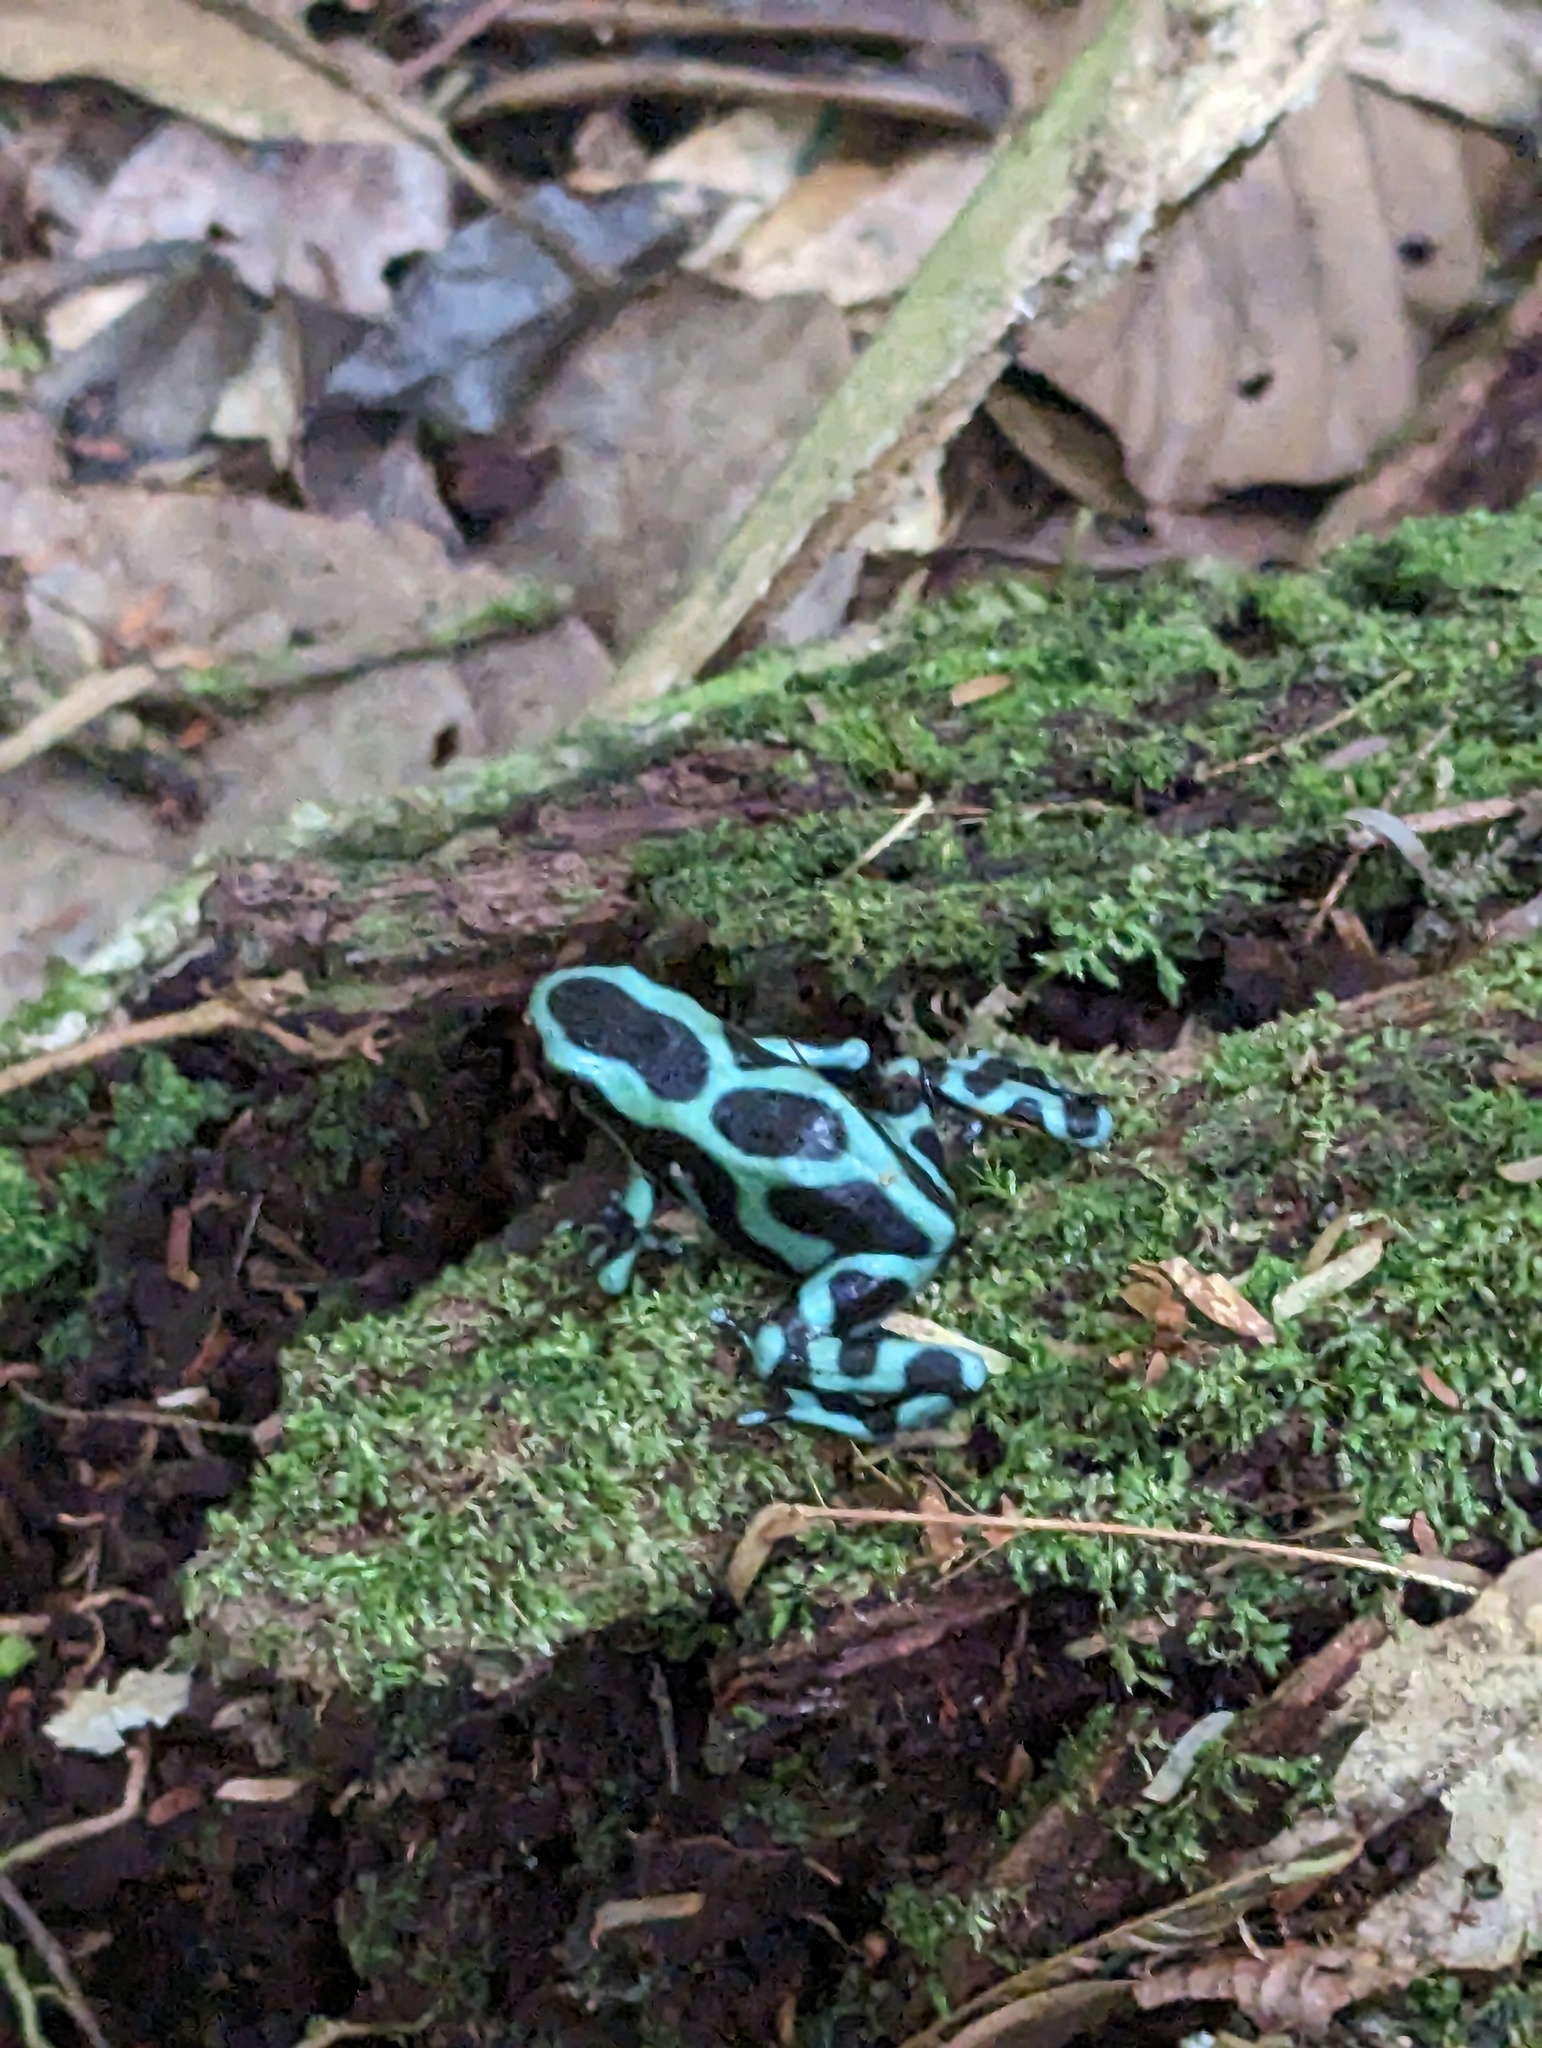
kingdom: Animalia
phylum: Chordata
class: Amphibia
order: Anura
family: Dendrobatidae
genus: Dendrobates
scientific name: Dendrobates auratus
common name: Green and black poison dart frog
